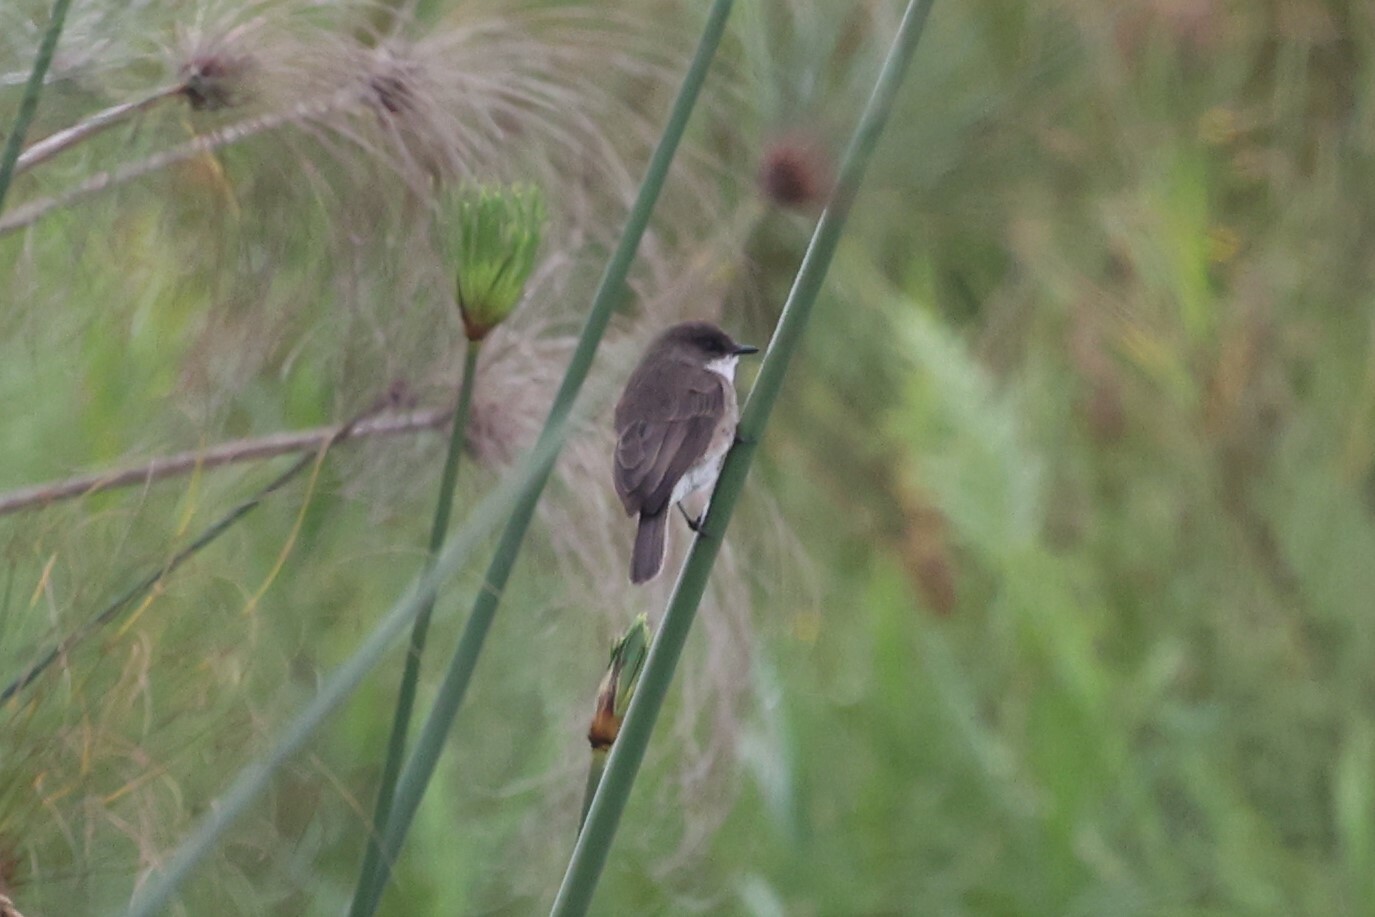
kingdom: Animalia
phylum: Chordata
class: Aves
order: Passeriformes
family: Muscicapidae
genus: Muscicapa
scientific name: Muscicapa aquatica
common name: Swamp flycatcher
